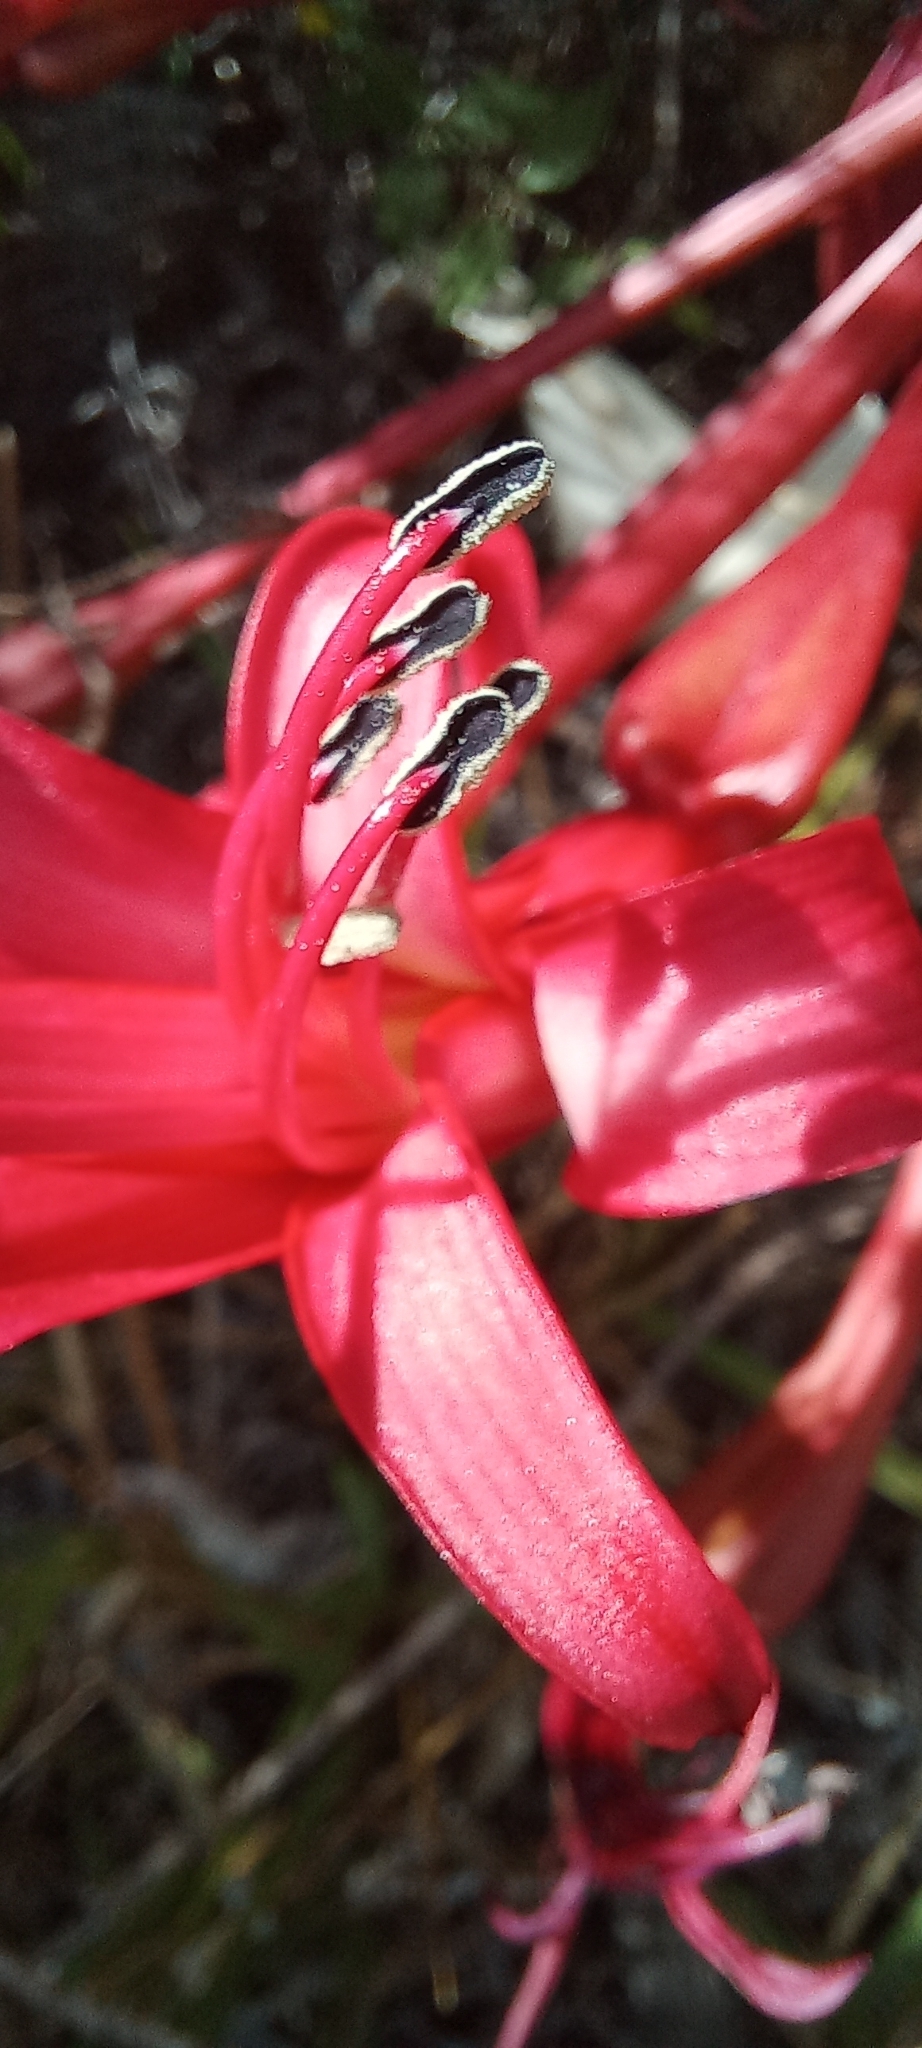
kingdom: Plantae
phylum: Tracheophyta
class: Liliopsida
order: Asparagales
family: Amaryllidaceae
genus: Brunsvigia
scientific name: Brunsvigia orientalis
